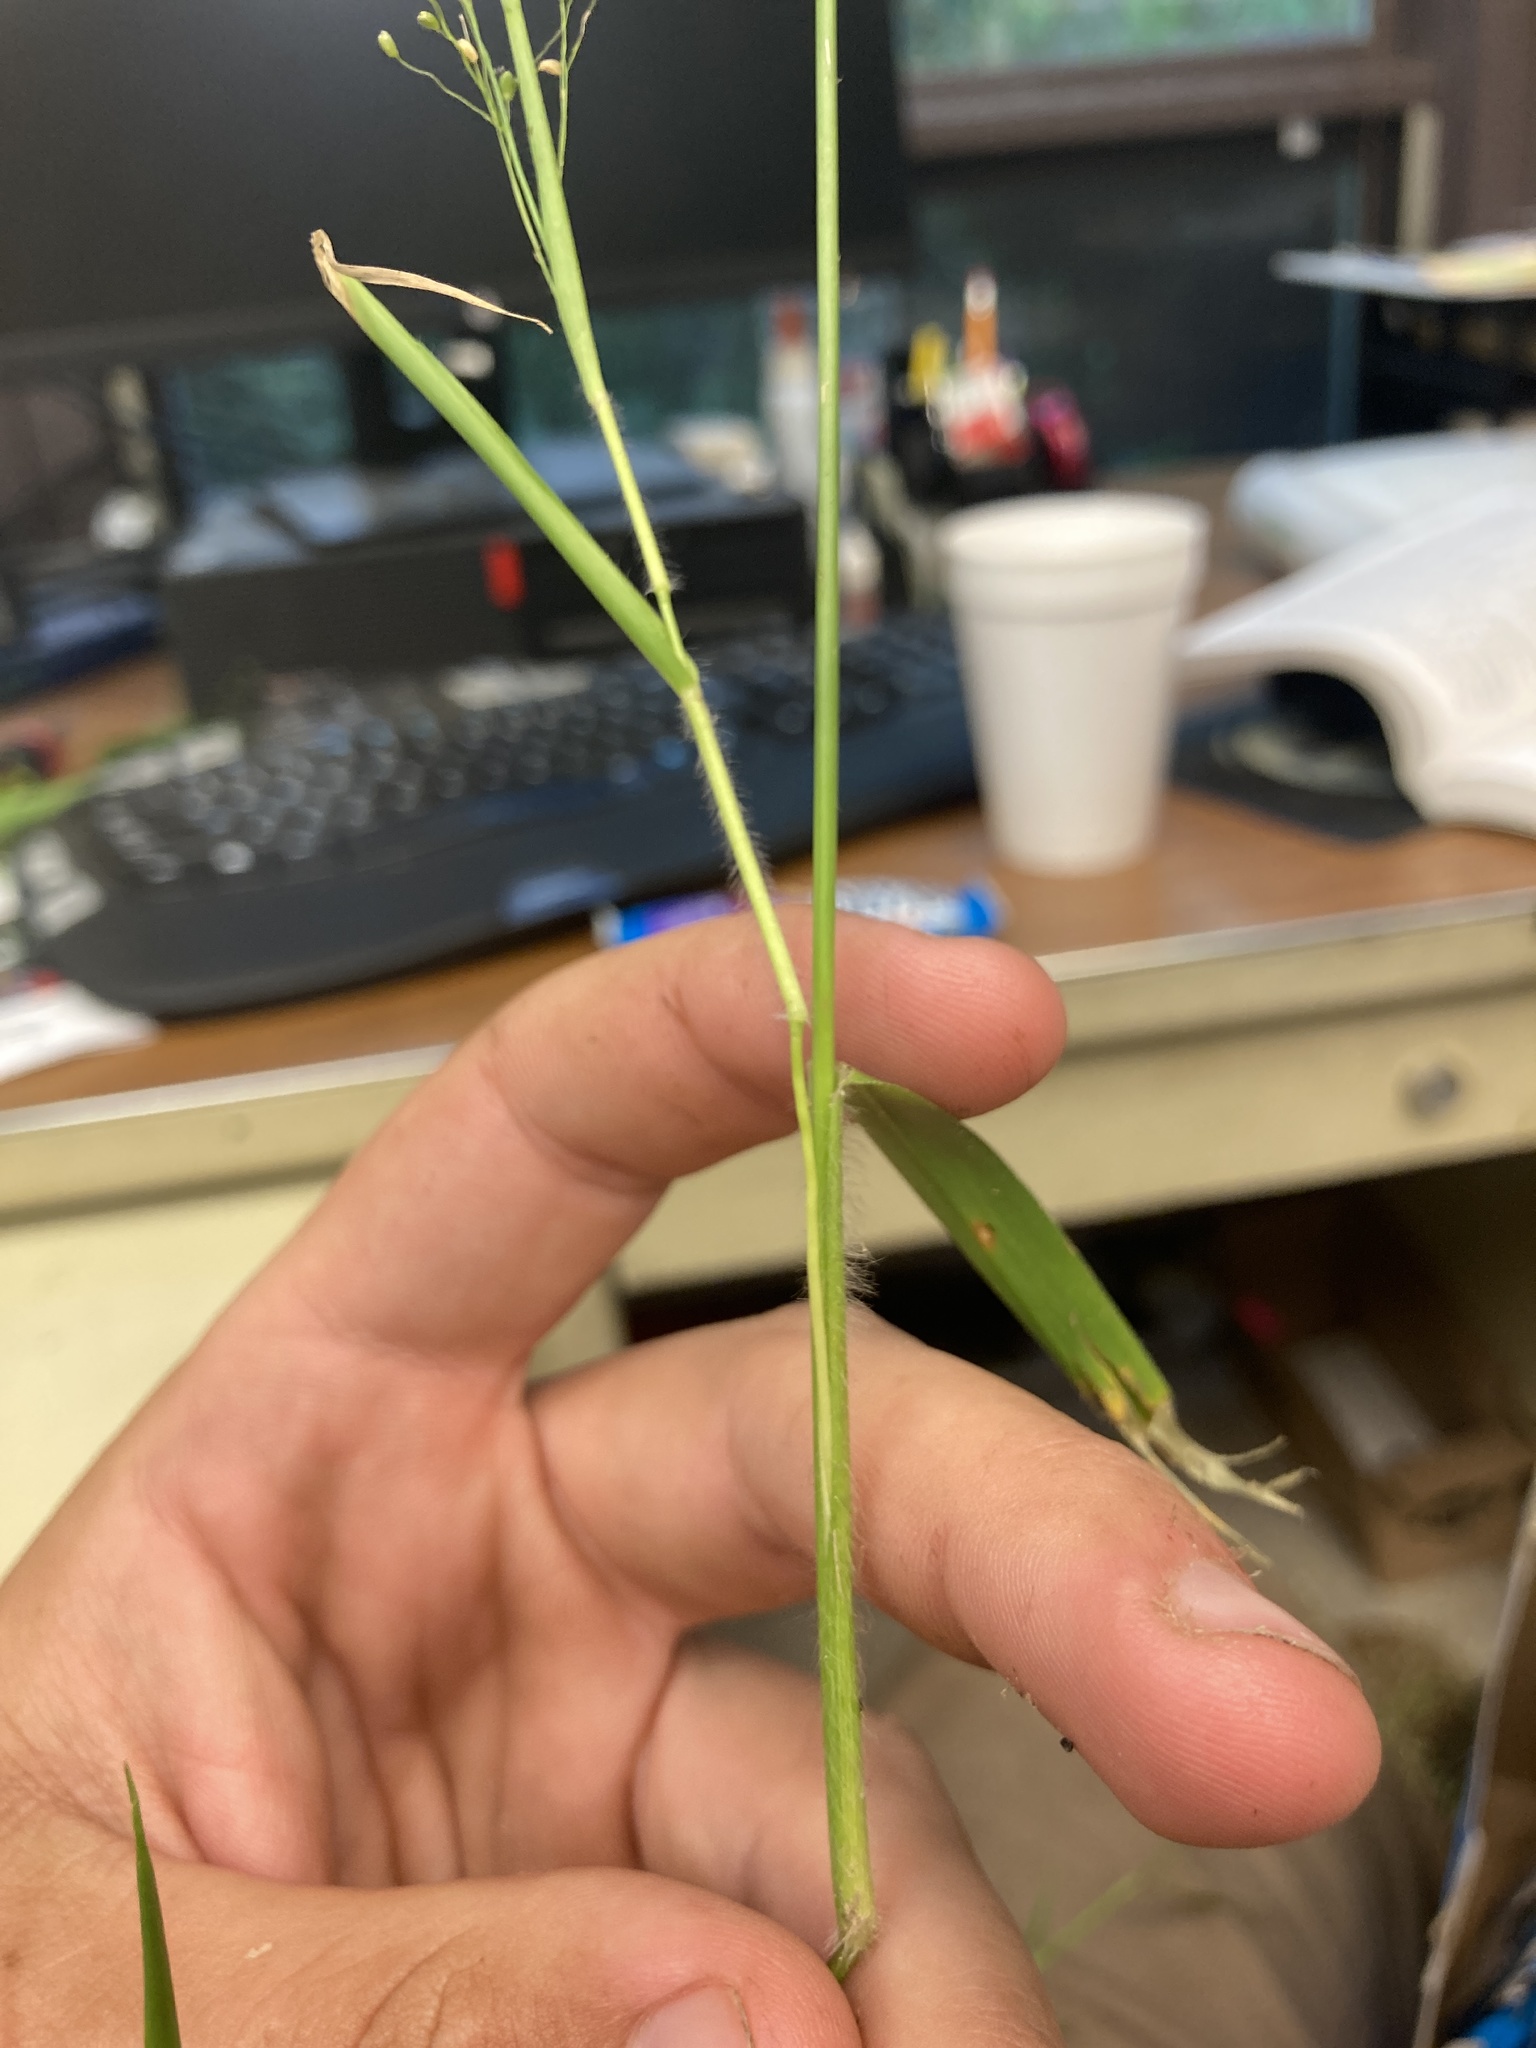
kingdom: Plantae
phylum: Tracheophyta
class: Liliopsida
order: Poales
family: Poaceae
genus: Dichanthelium
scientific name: Dichanthelium laxiflorum
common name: Soft-tuft panic grass
